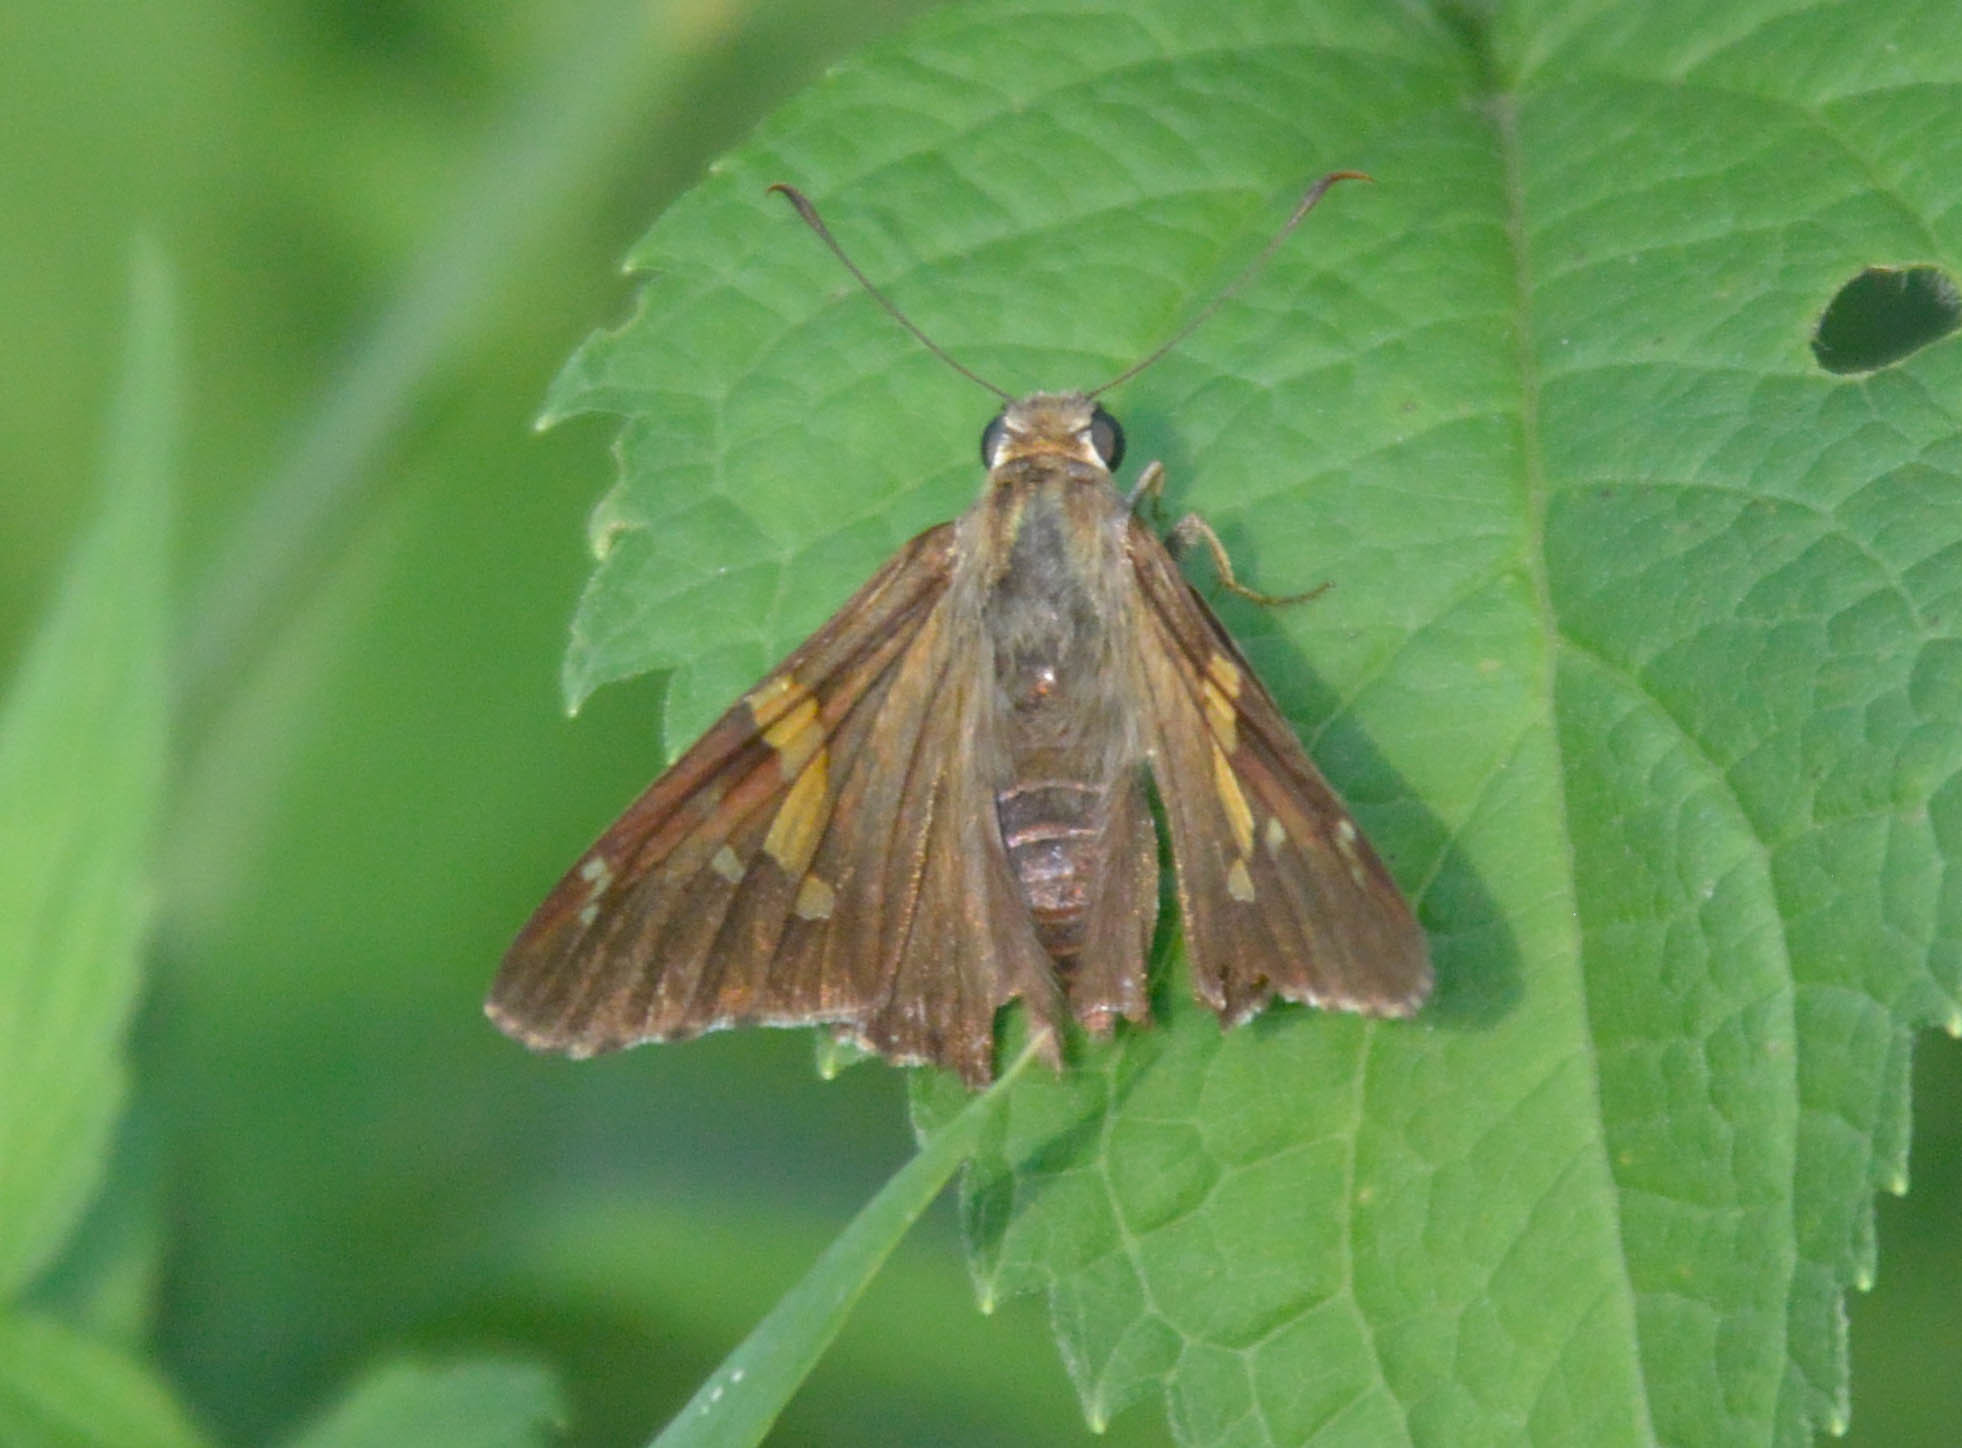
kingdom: Animalia
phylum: Arthropoda
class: Insecta
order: Lepidoptera
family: Hesperiidae
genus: Epargyreus
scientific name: Epargyreus clarus
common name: Silver-spotted skipper
